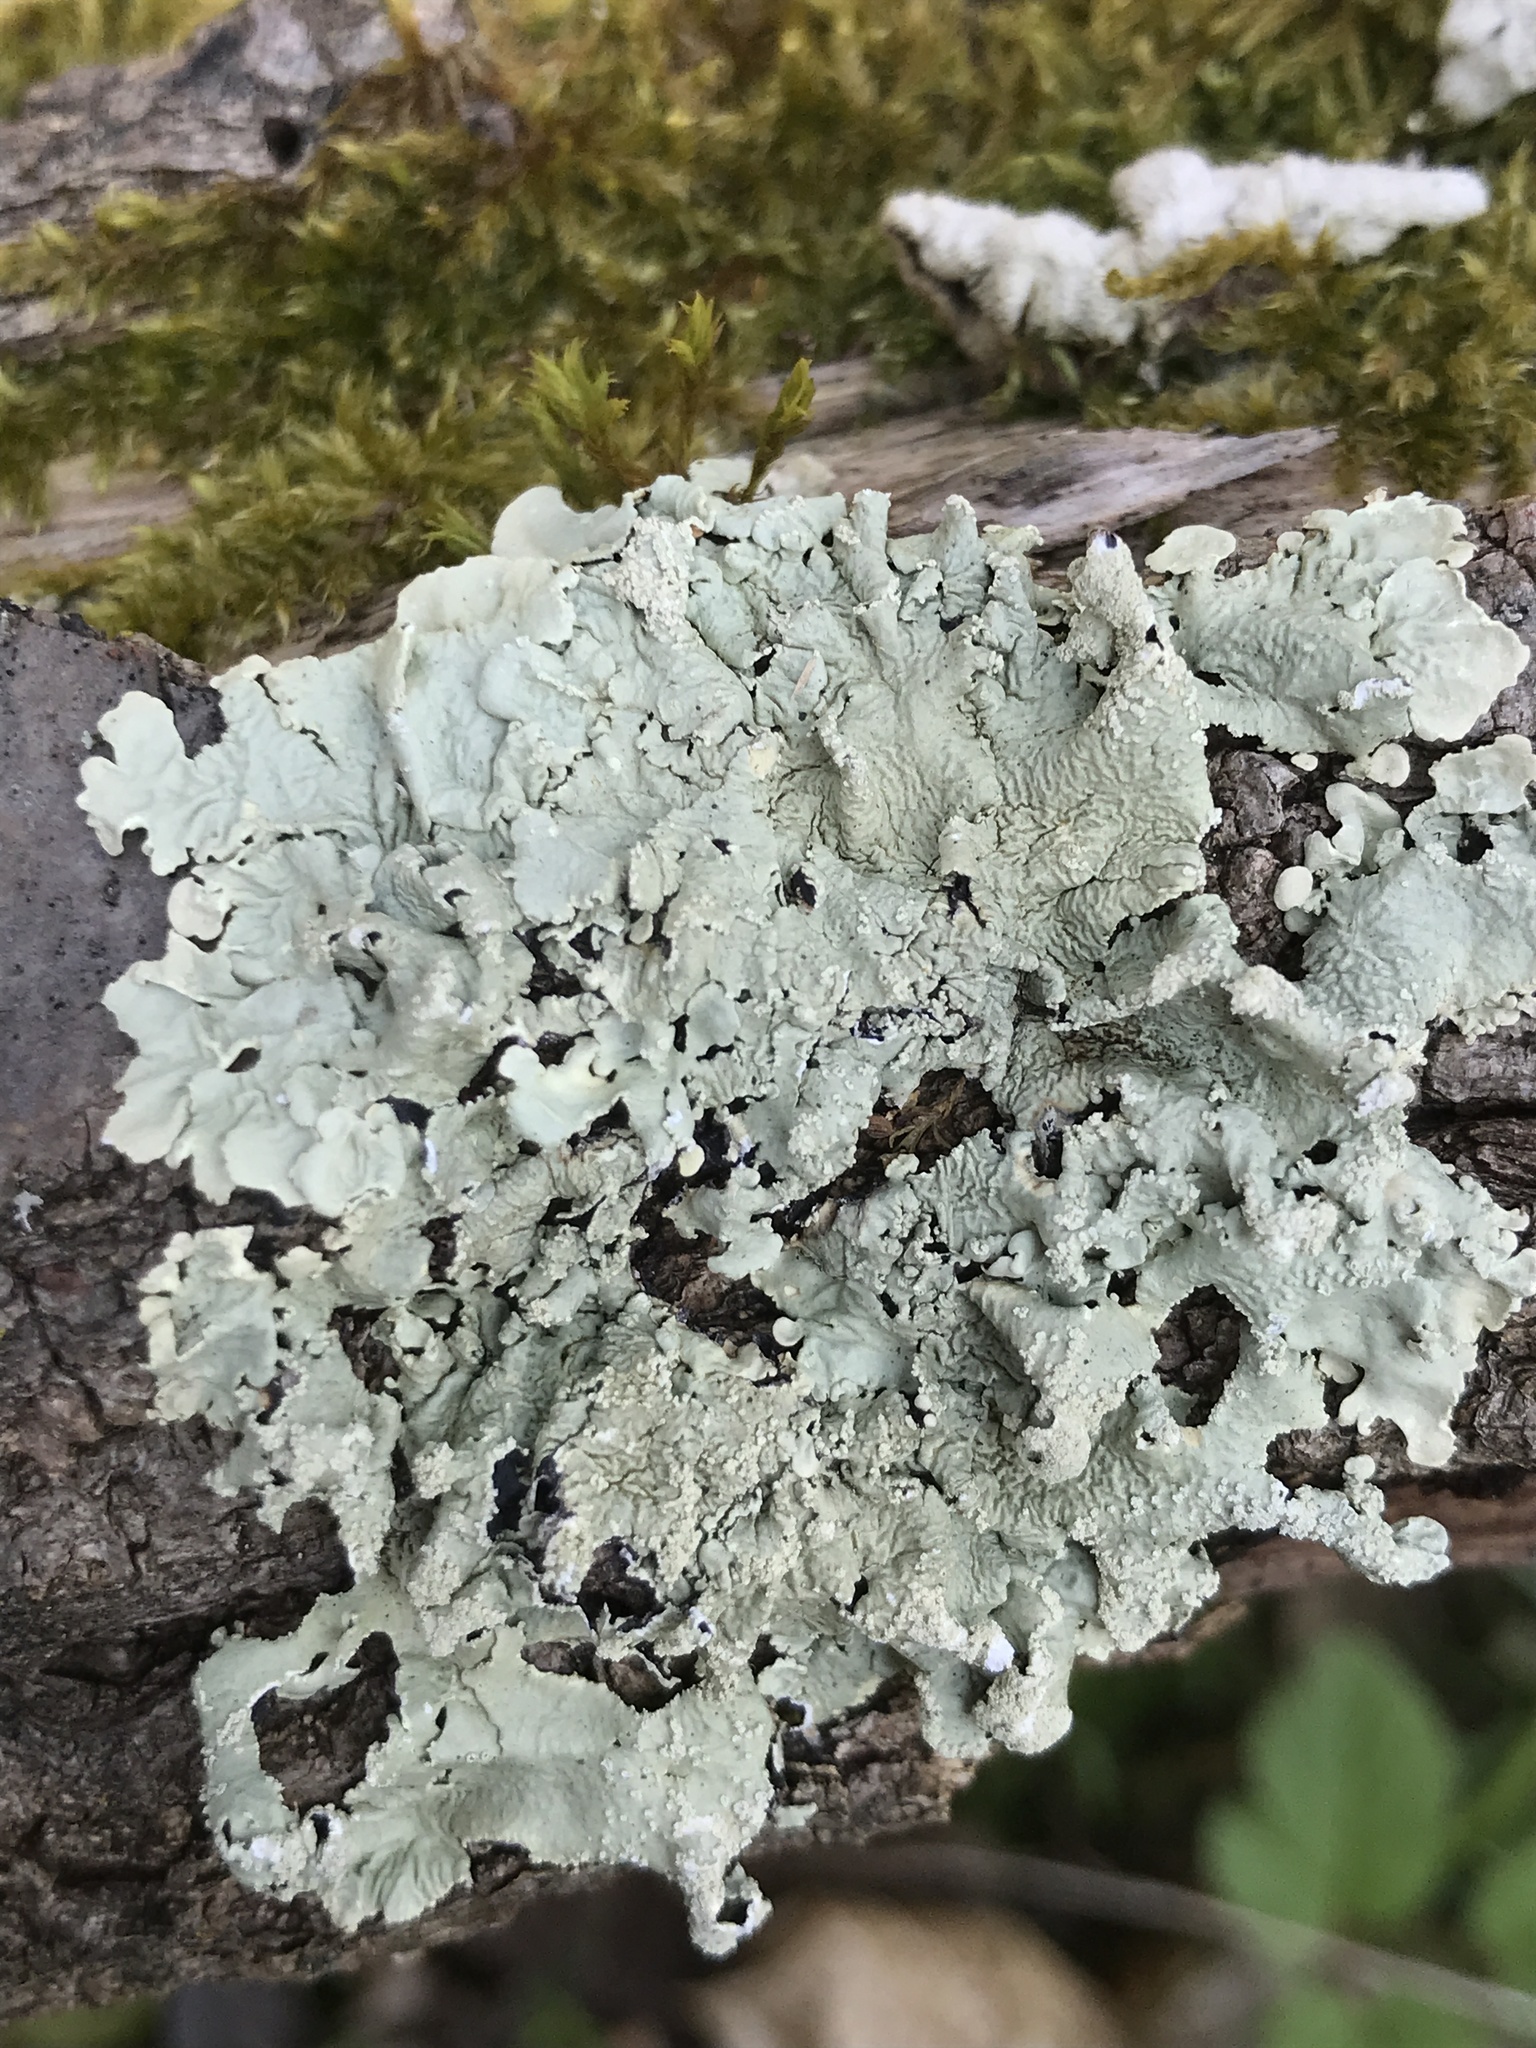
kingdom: Fungi
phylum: Ascomycota
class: Lecanoromycetes
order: Lecanorales
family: Parmeliaceae
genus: Flavoparmelia
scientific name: Flavoparmelia caperata
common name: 40-mile per hour lichen
